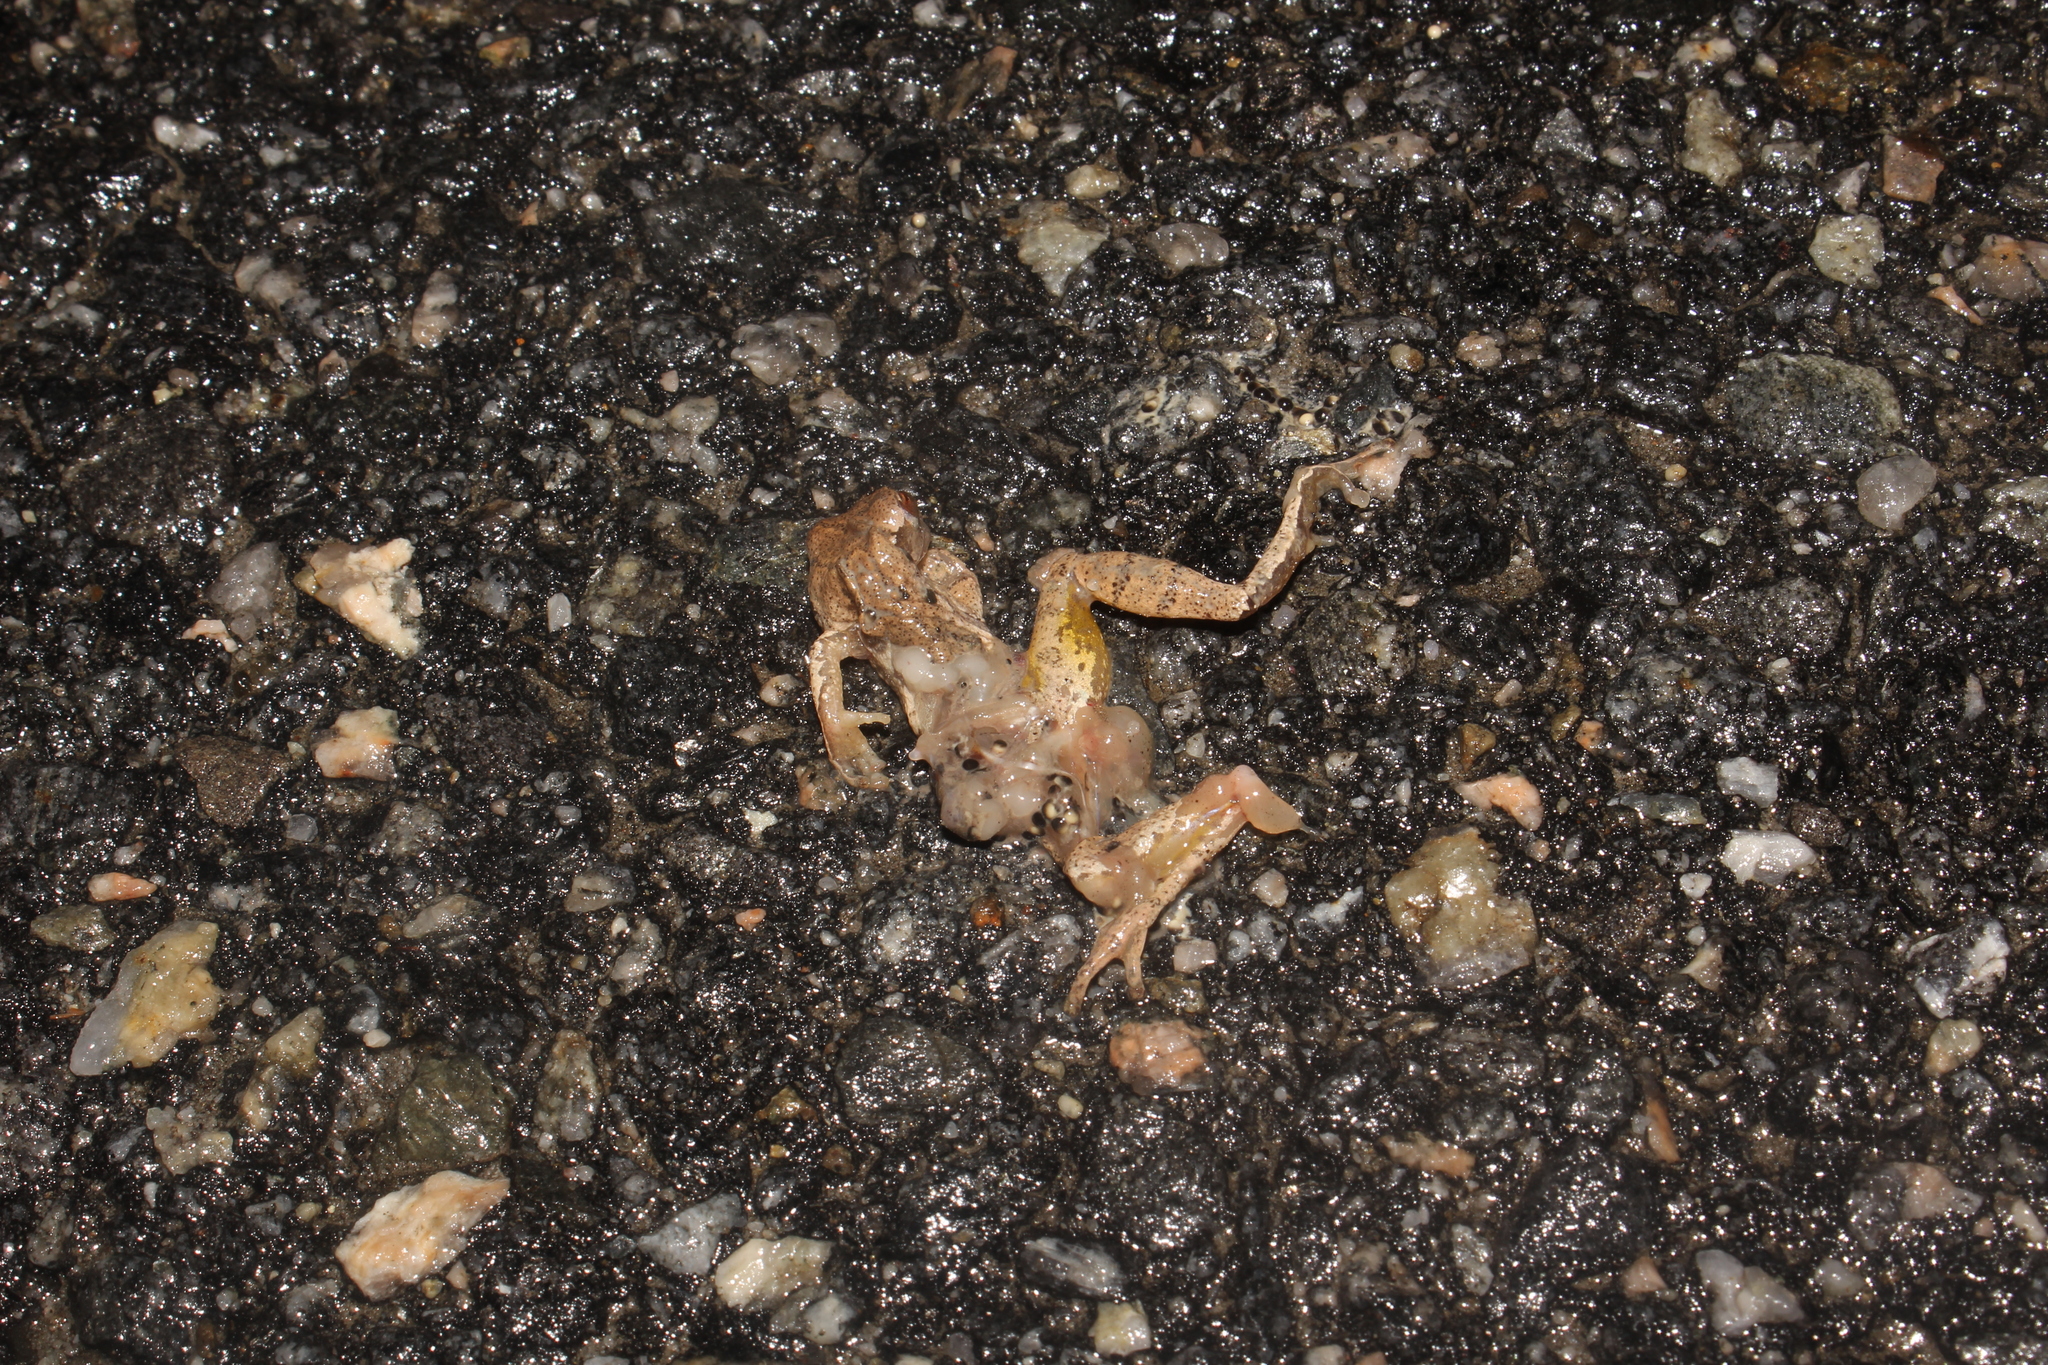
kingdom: Animalia
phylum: Chordata
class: Amphibia
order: Anura
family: Hylidae
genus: Pseudacris
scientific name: Pseudacris crucifer
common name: Spring peeper
